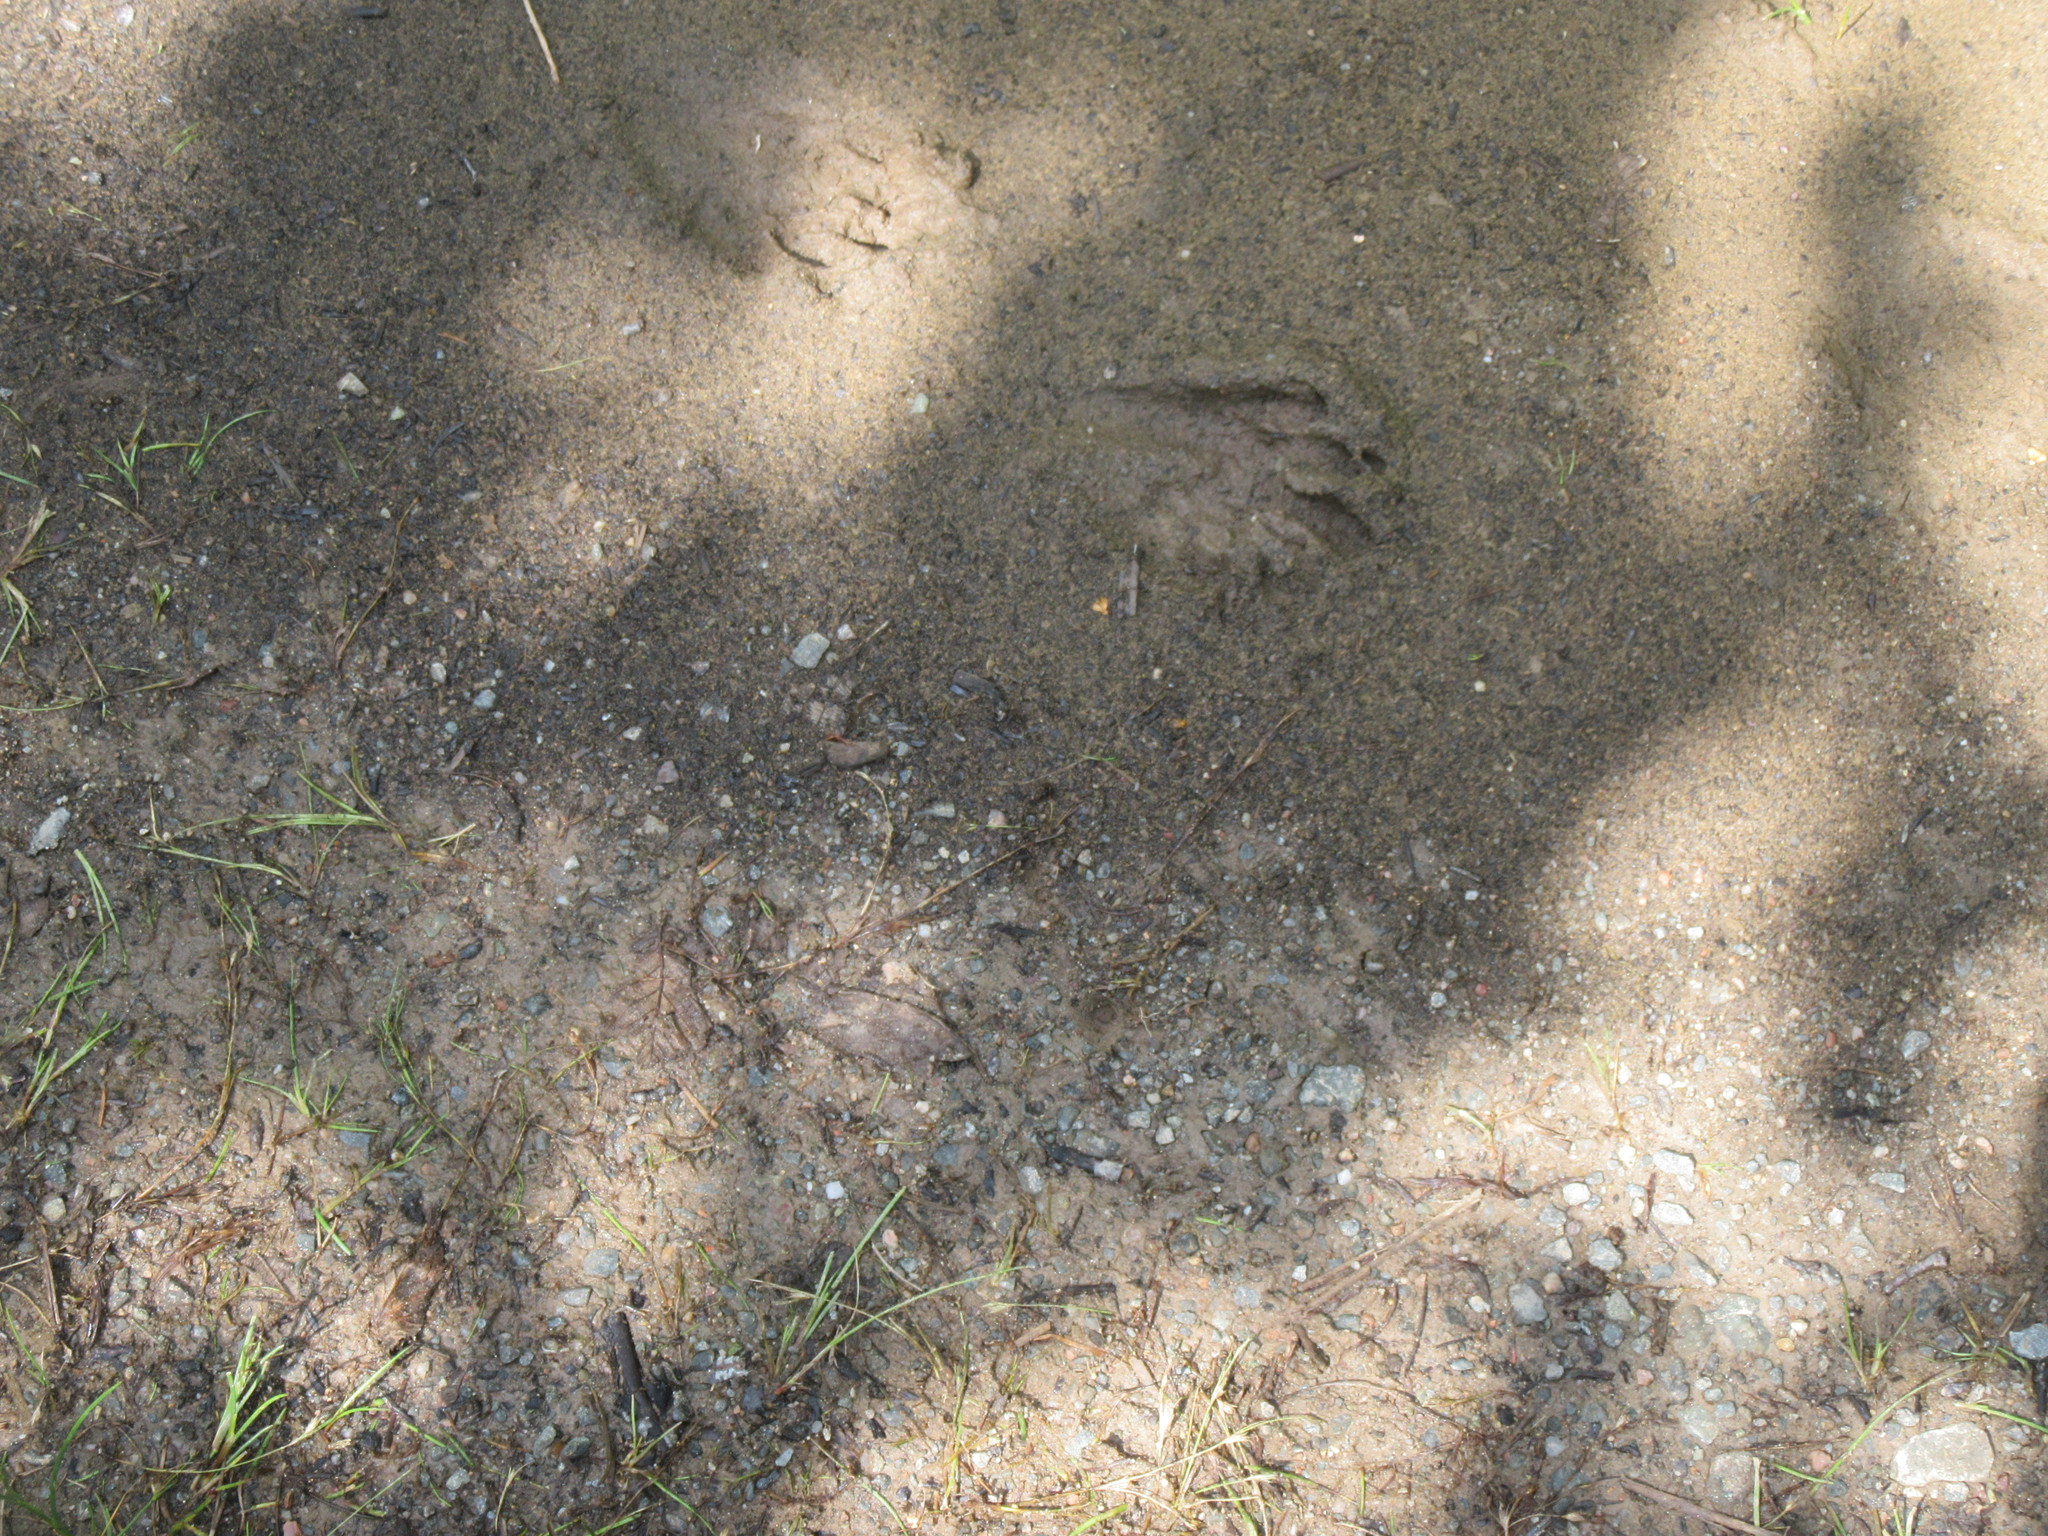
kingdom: Animalia
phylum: Chordata
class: Mammalia
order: Carnivora
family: Procyonidae
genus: Procyon
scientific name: Procyon lotor
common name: Raccoon
